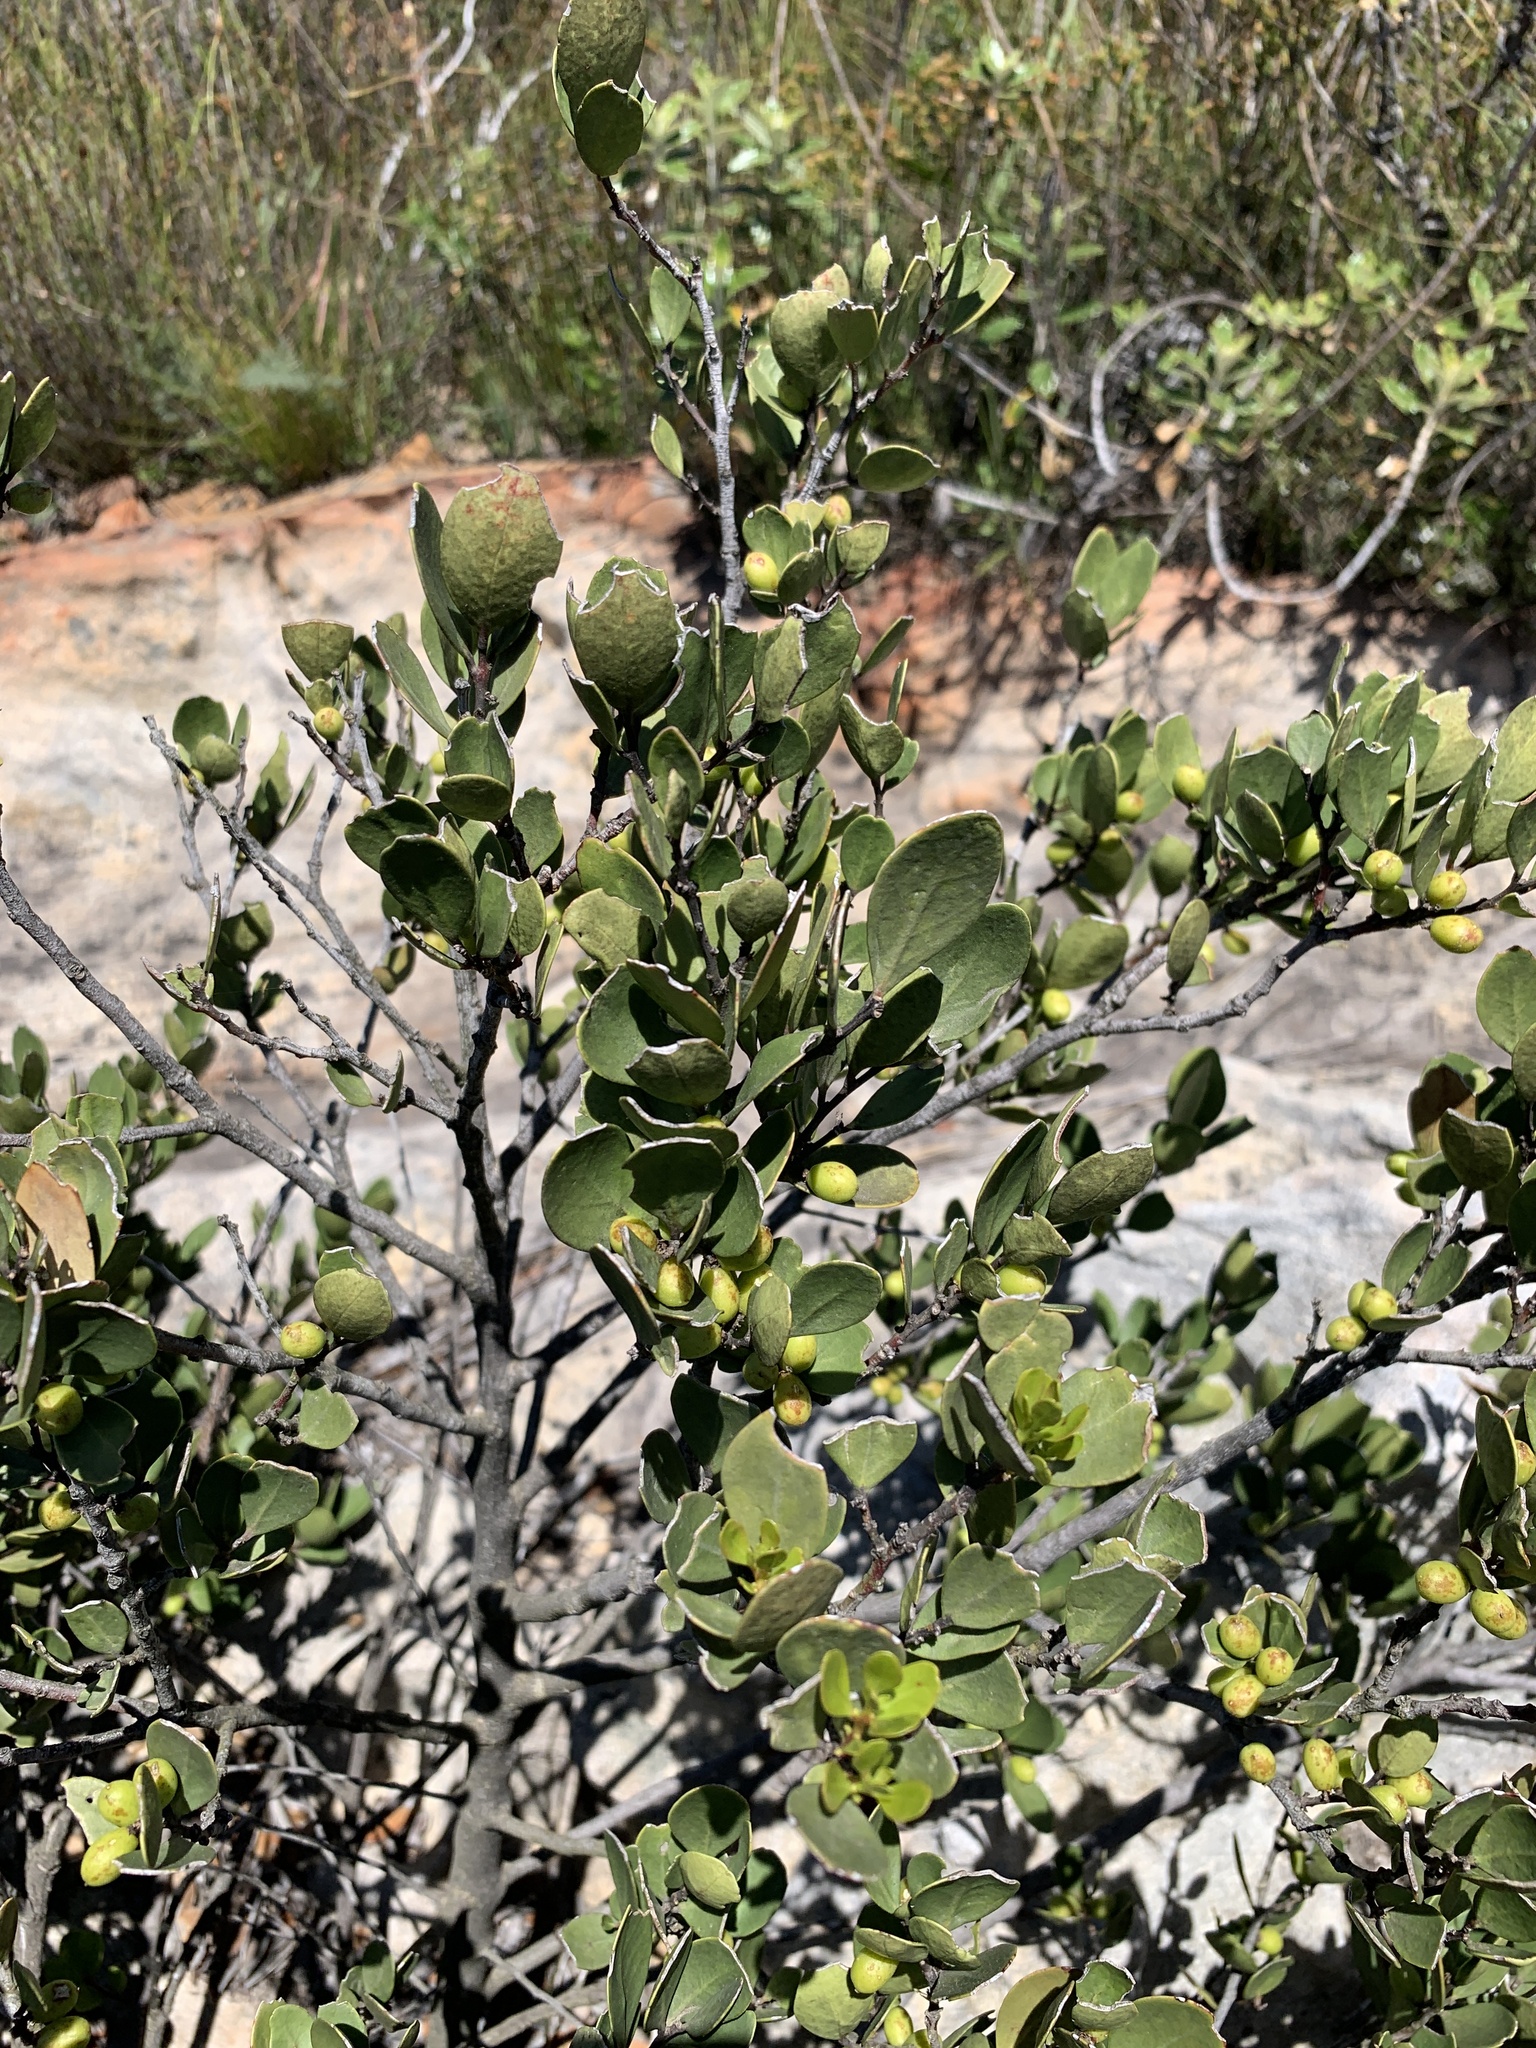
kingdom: Plantae
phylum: Tracheophyta
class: Magnoliopsida
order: Celastrales
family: Celastraceae
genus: Gymnosporia
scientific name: Gymnosporia laurina
